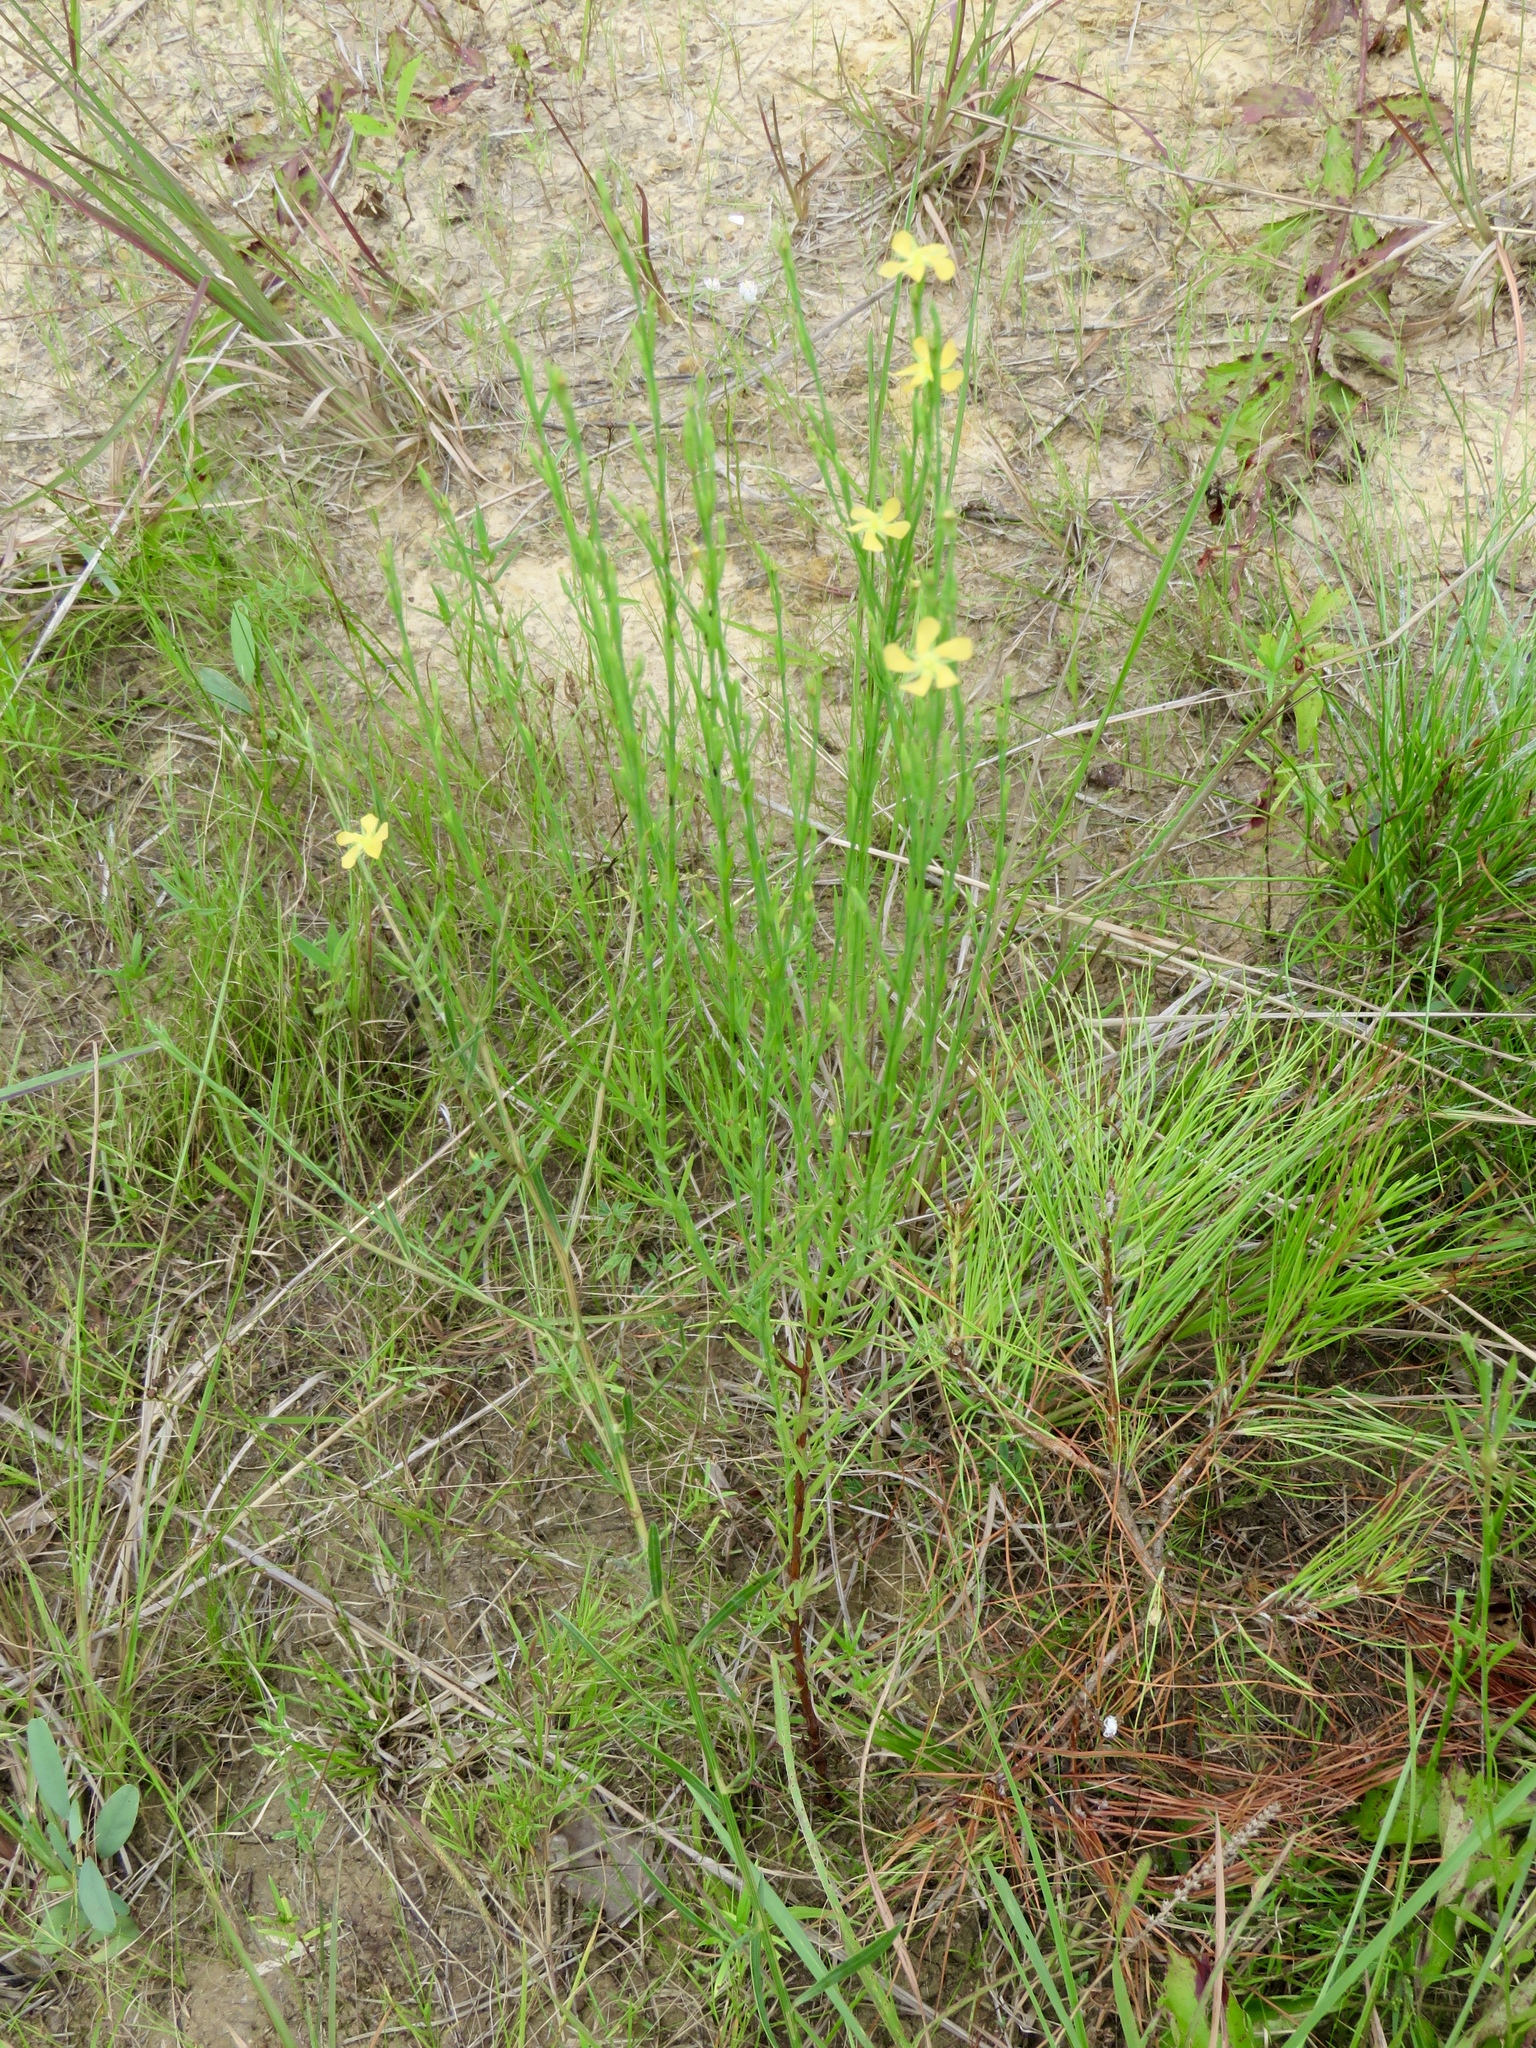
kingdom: Plantae
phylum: Tracheophyta
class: Magnoliopsida
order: Malpighiales
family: Hypericaceae
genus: Hypericum
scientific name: Hypericum drummondii
